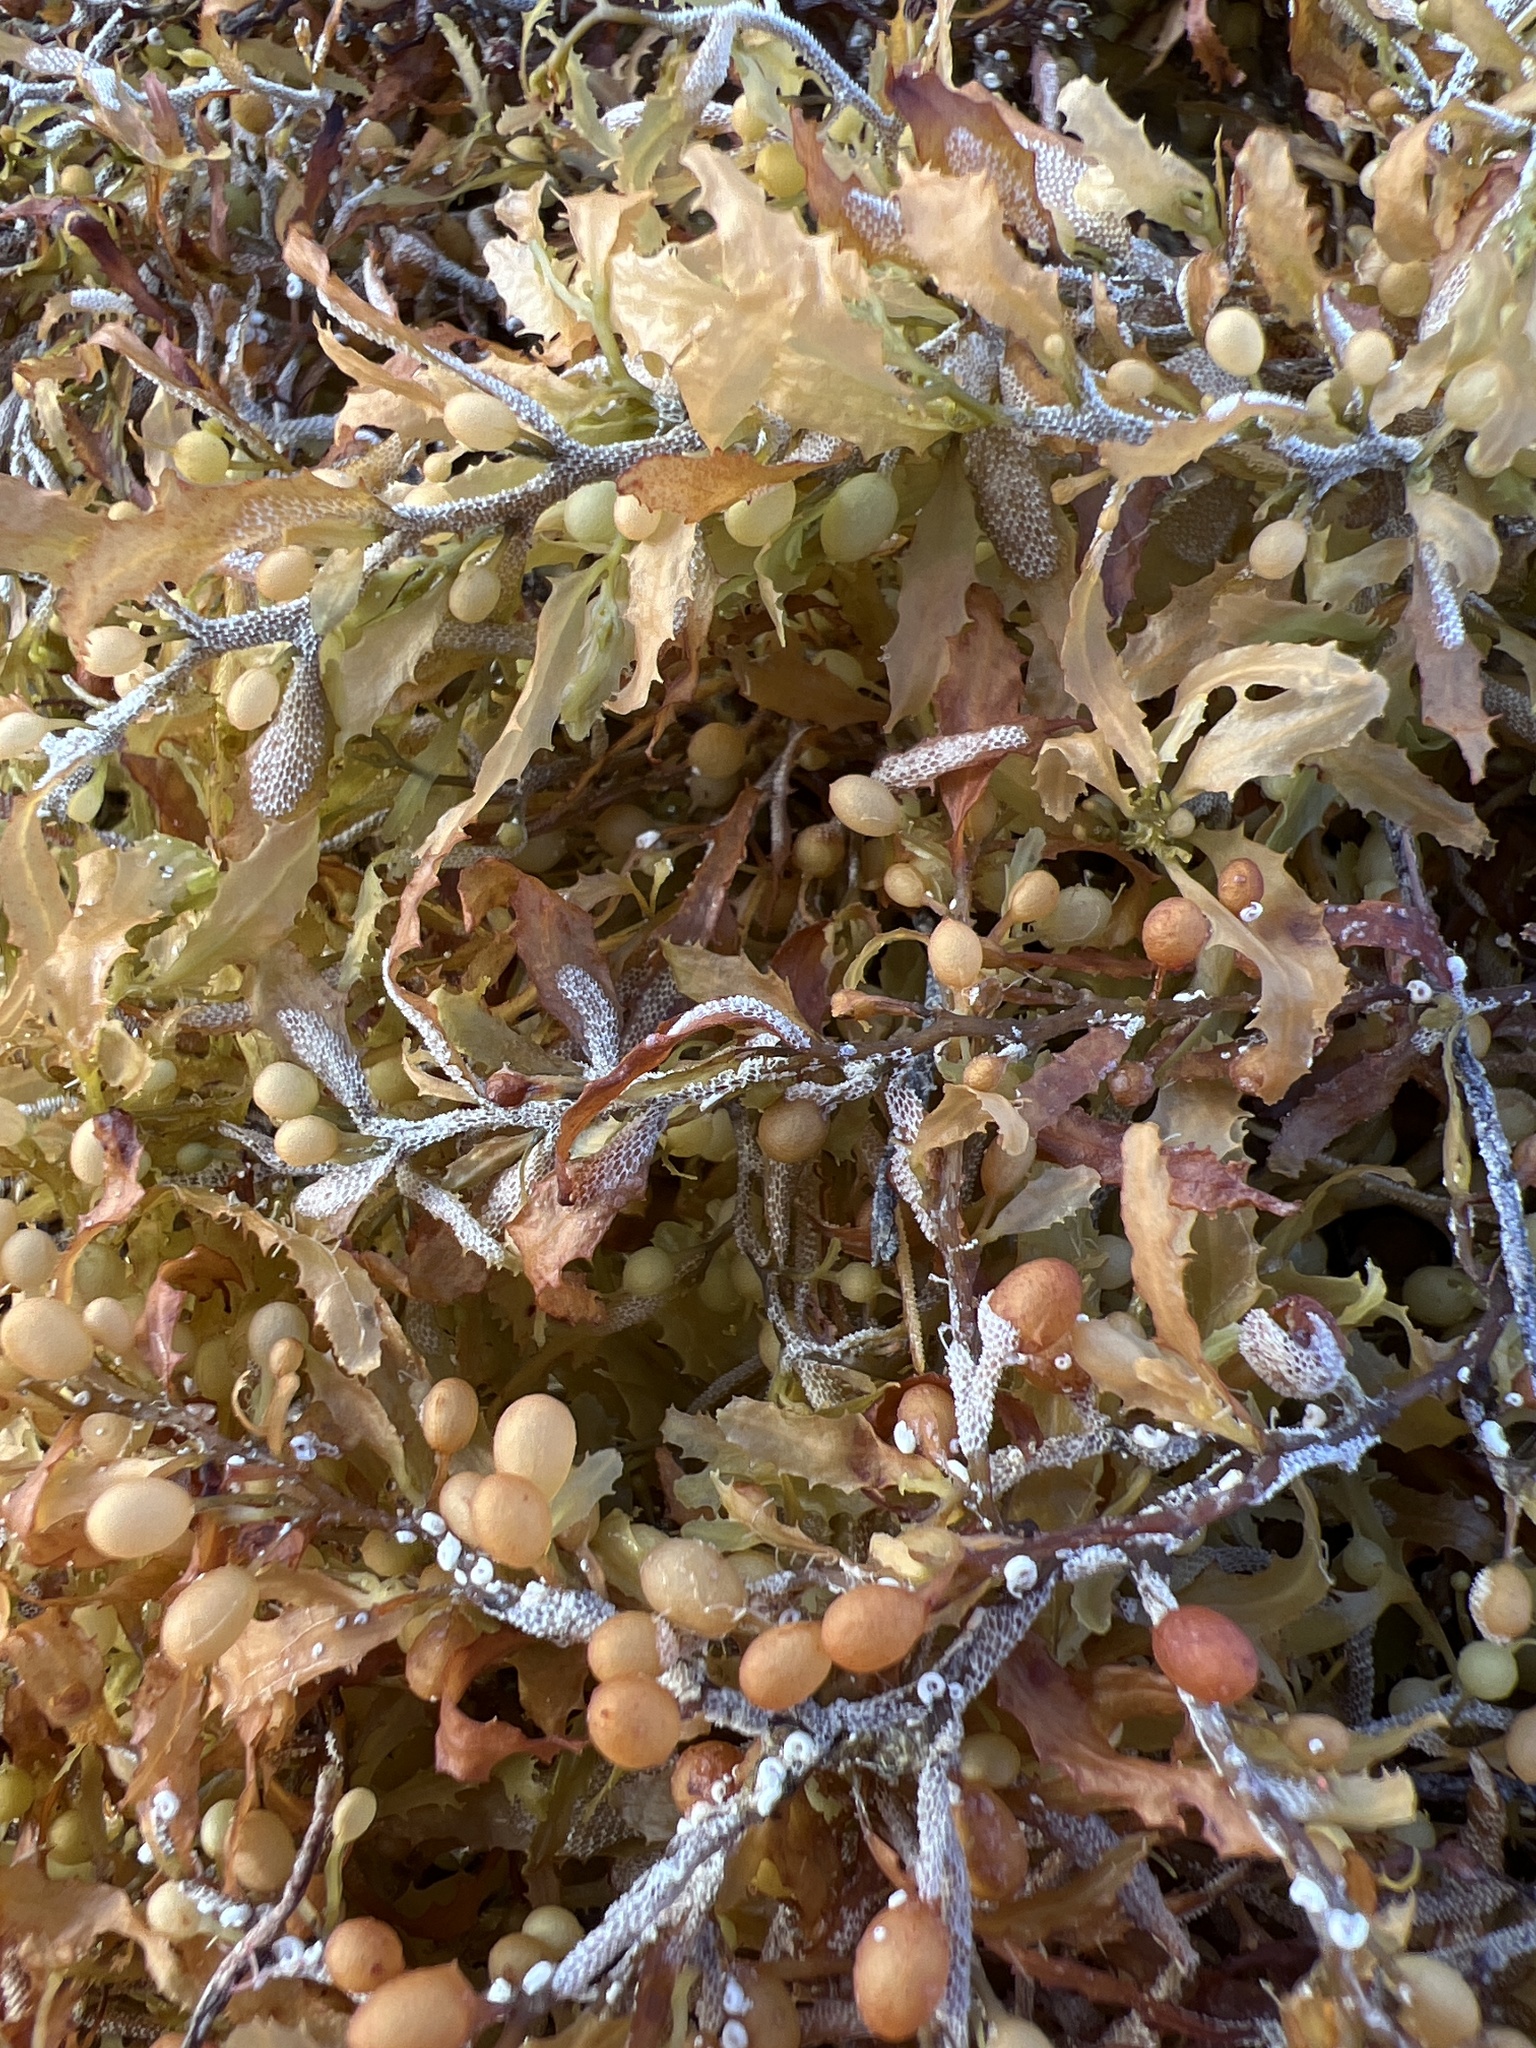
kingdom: Chromista
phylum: Ochrophyta
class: Phaeophyceae
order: Fucales
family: Sargassaceae
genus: Sargassum
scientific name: Sargassum fluitans
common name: Sargassum seaweed
